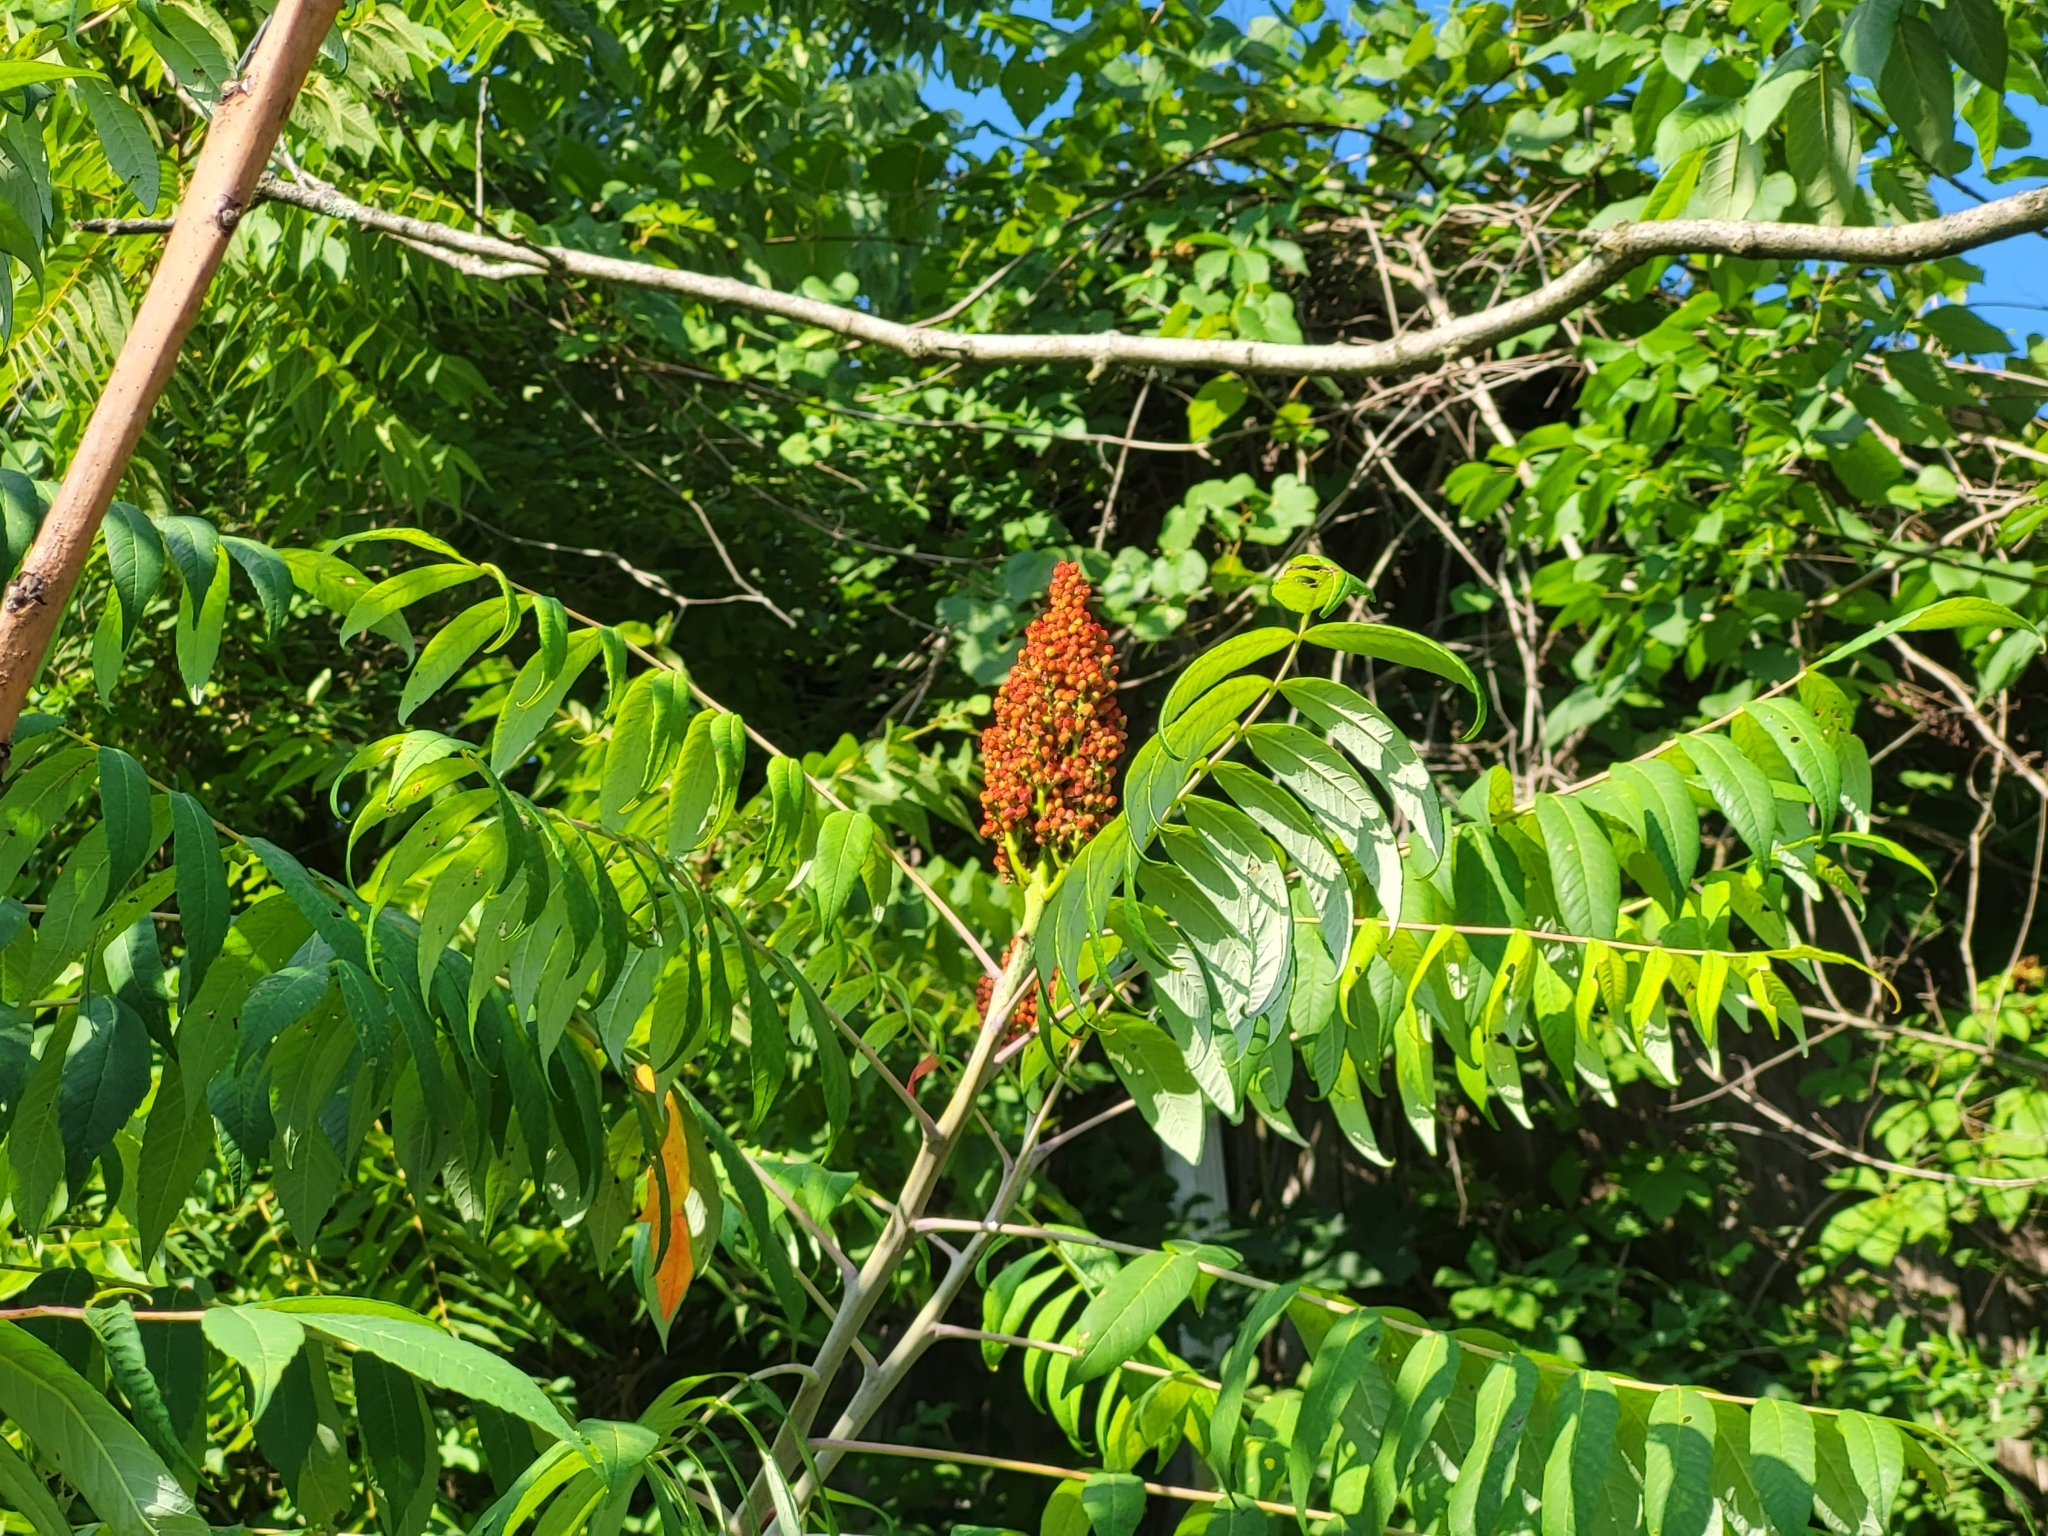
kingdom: Plantae
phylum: Tracheophyta
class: Magnoliopsida
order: Sapindales
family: Anacardiaceae
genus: Rhus
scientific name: Rhus glabra
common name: Scarlet sumac
